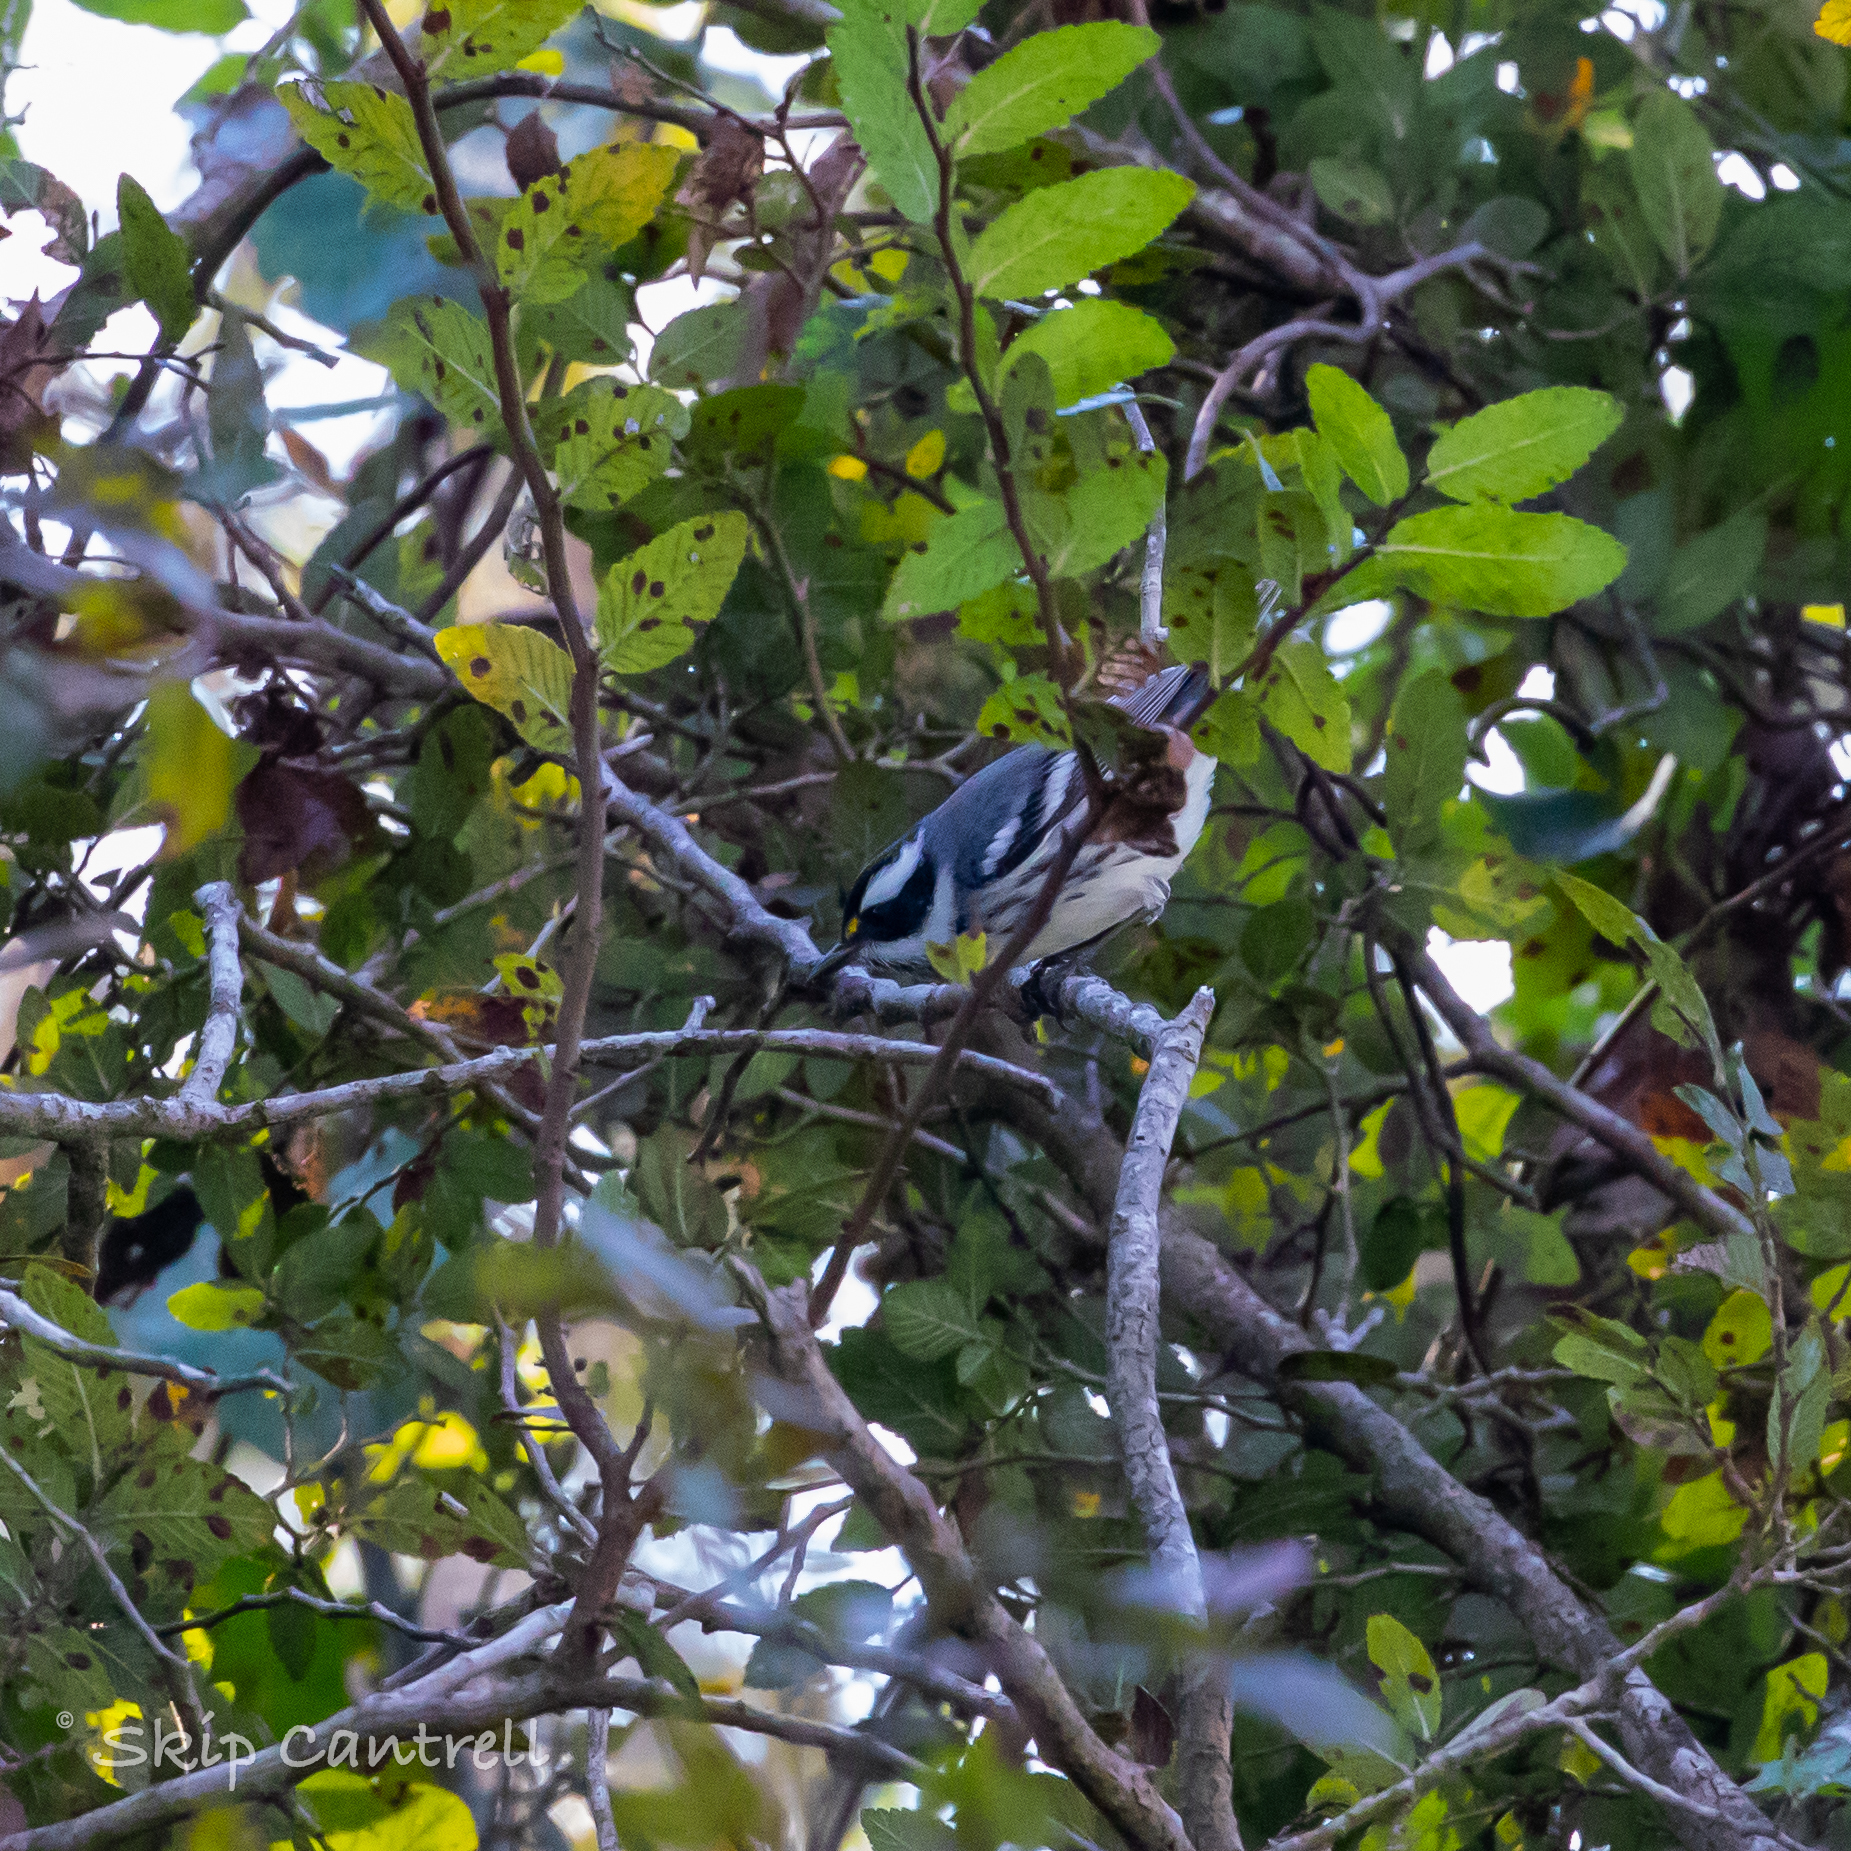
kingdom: Animalia
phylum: Chordata
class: Aves
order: Passeriformes
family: Parulidae
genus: Setophaga
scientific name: Setophaga nigrescens
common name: Black-throated gray warbler
